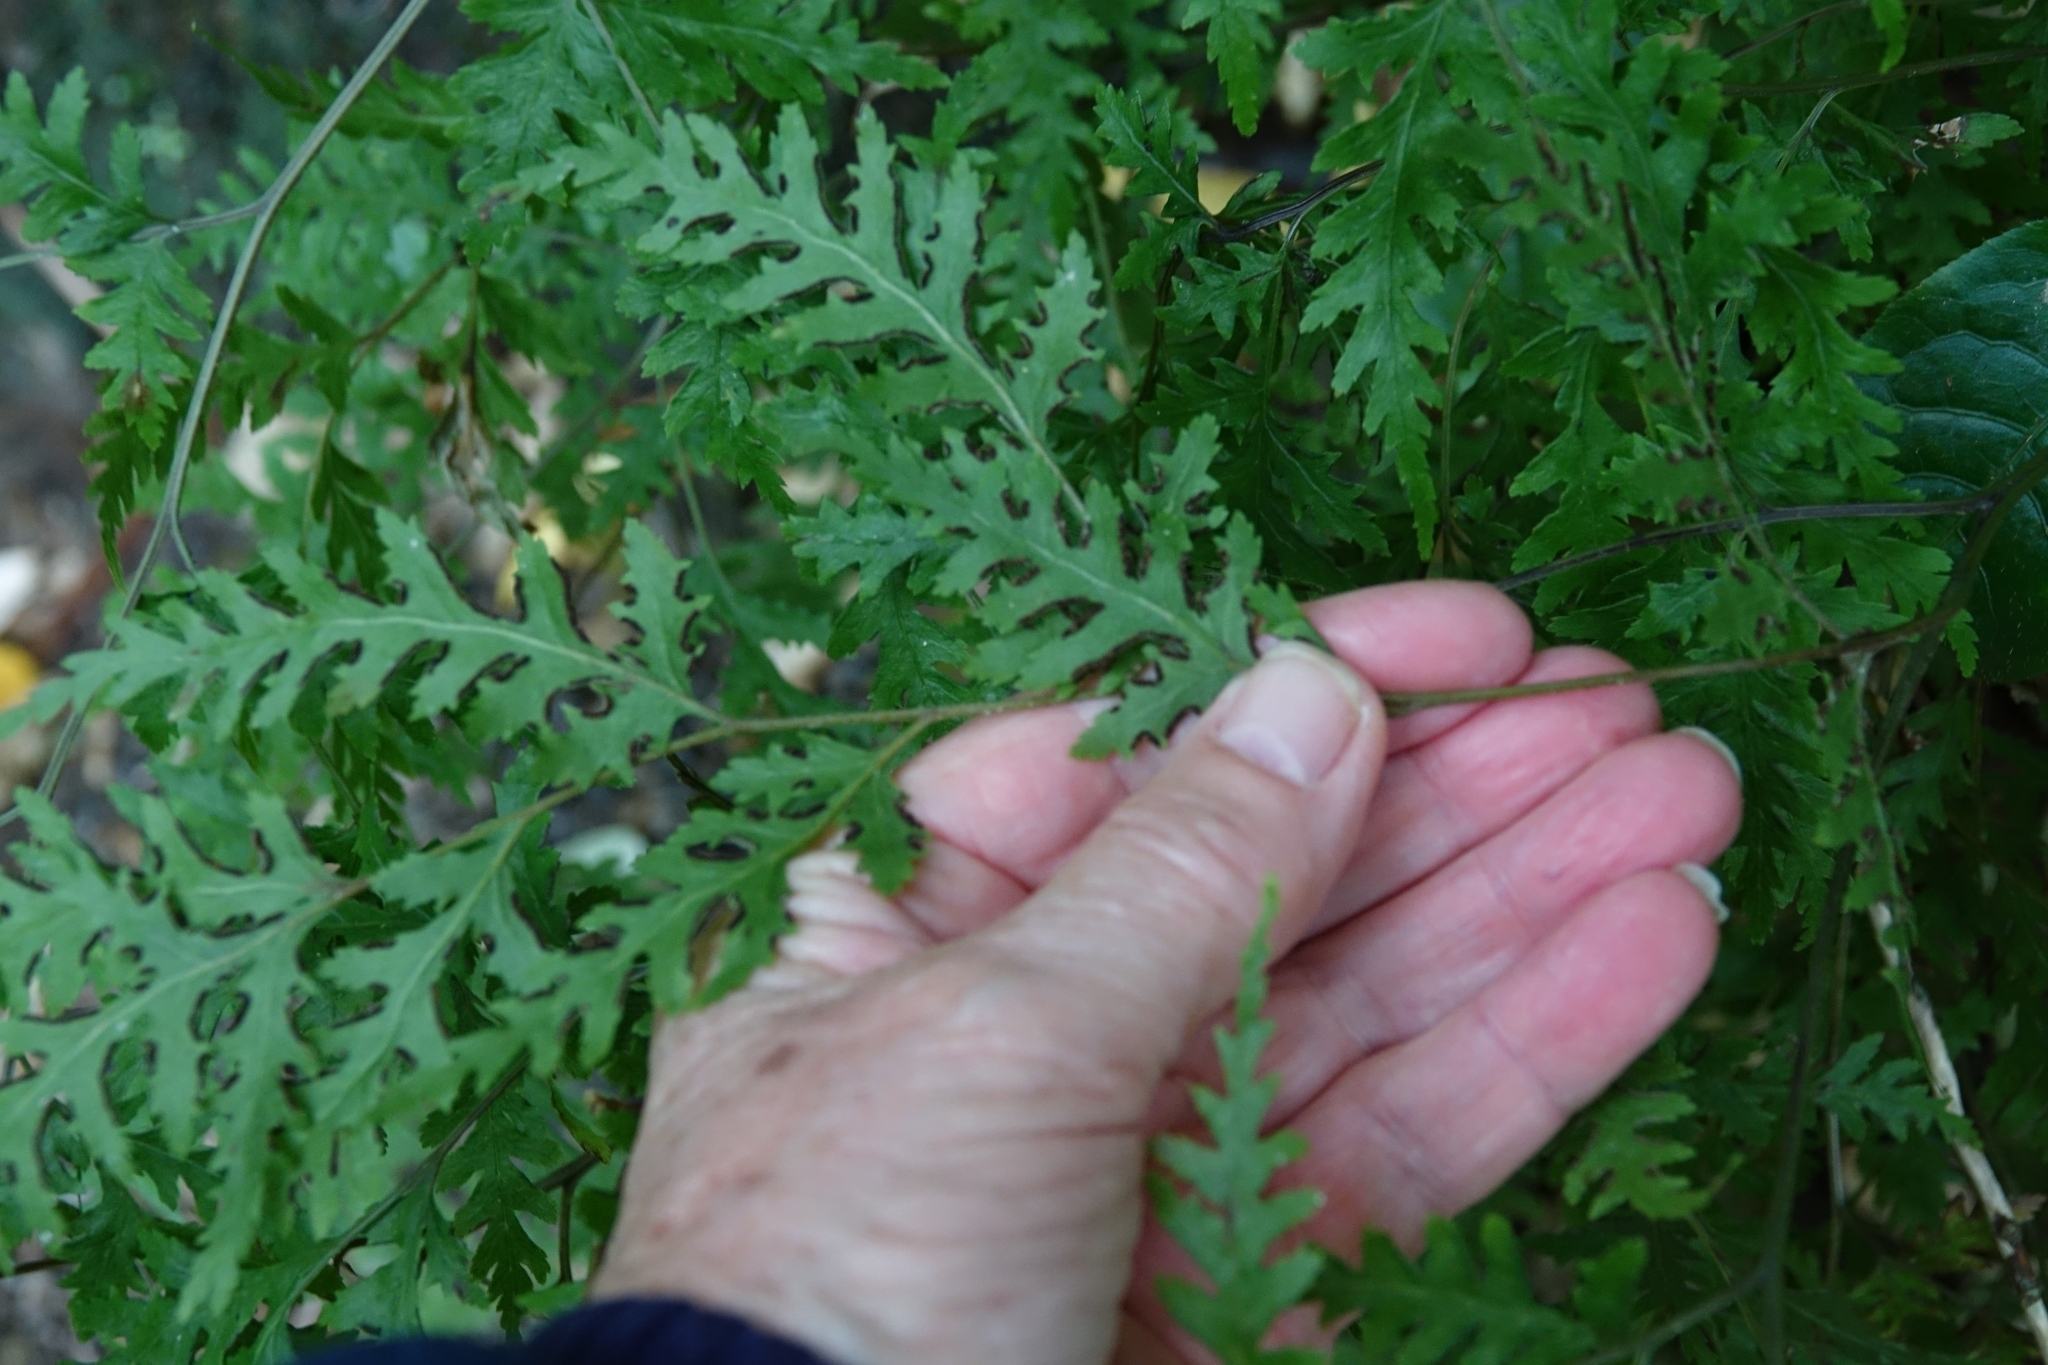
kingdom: Plantae
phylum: Tracheophyta
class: Polypodiopsida
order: Polypodiales
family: Pteridaceae
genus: Pteris
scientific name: Pteris macilenta
